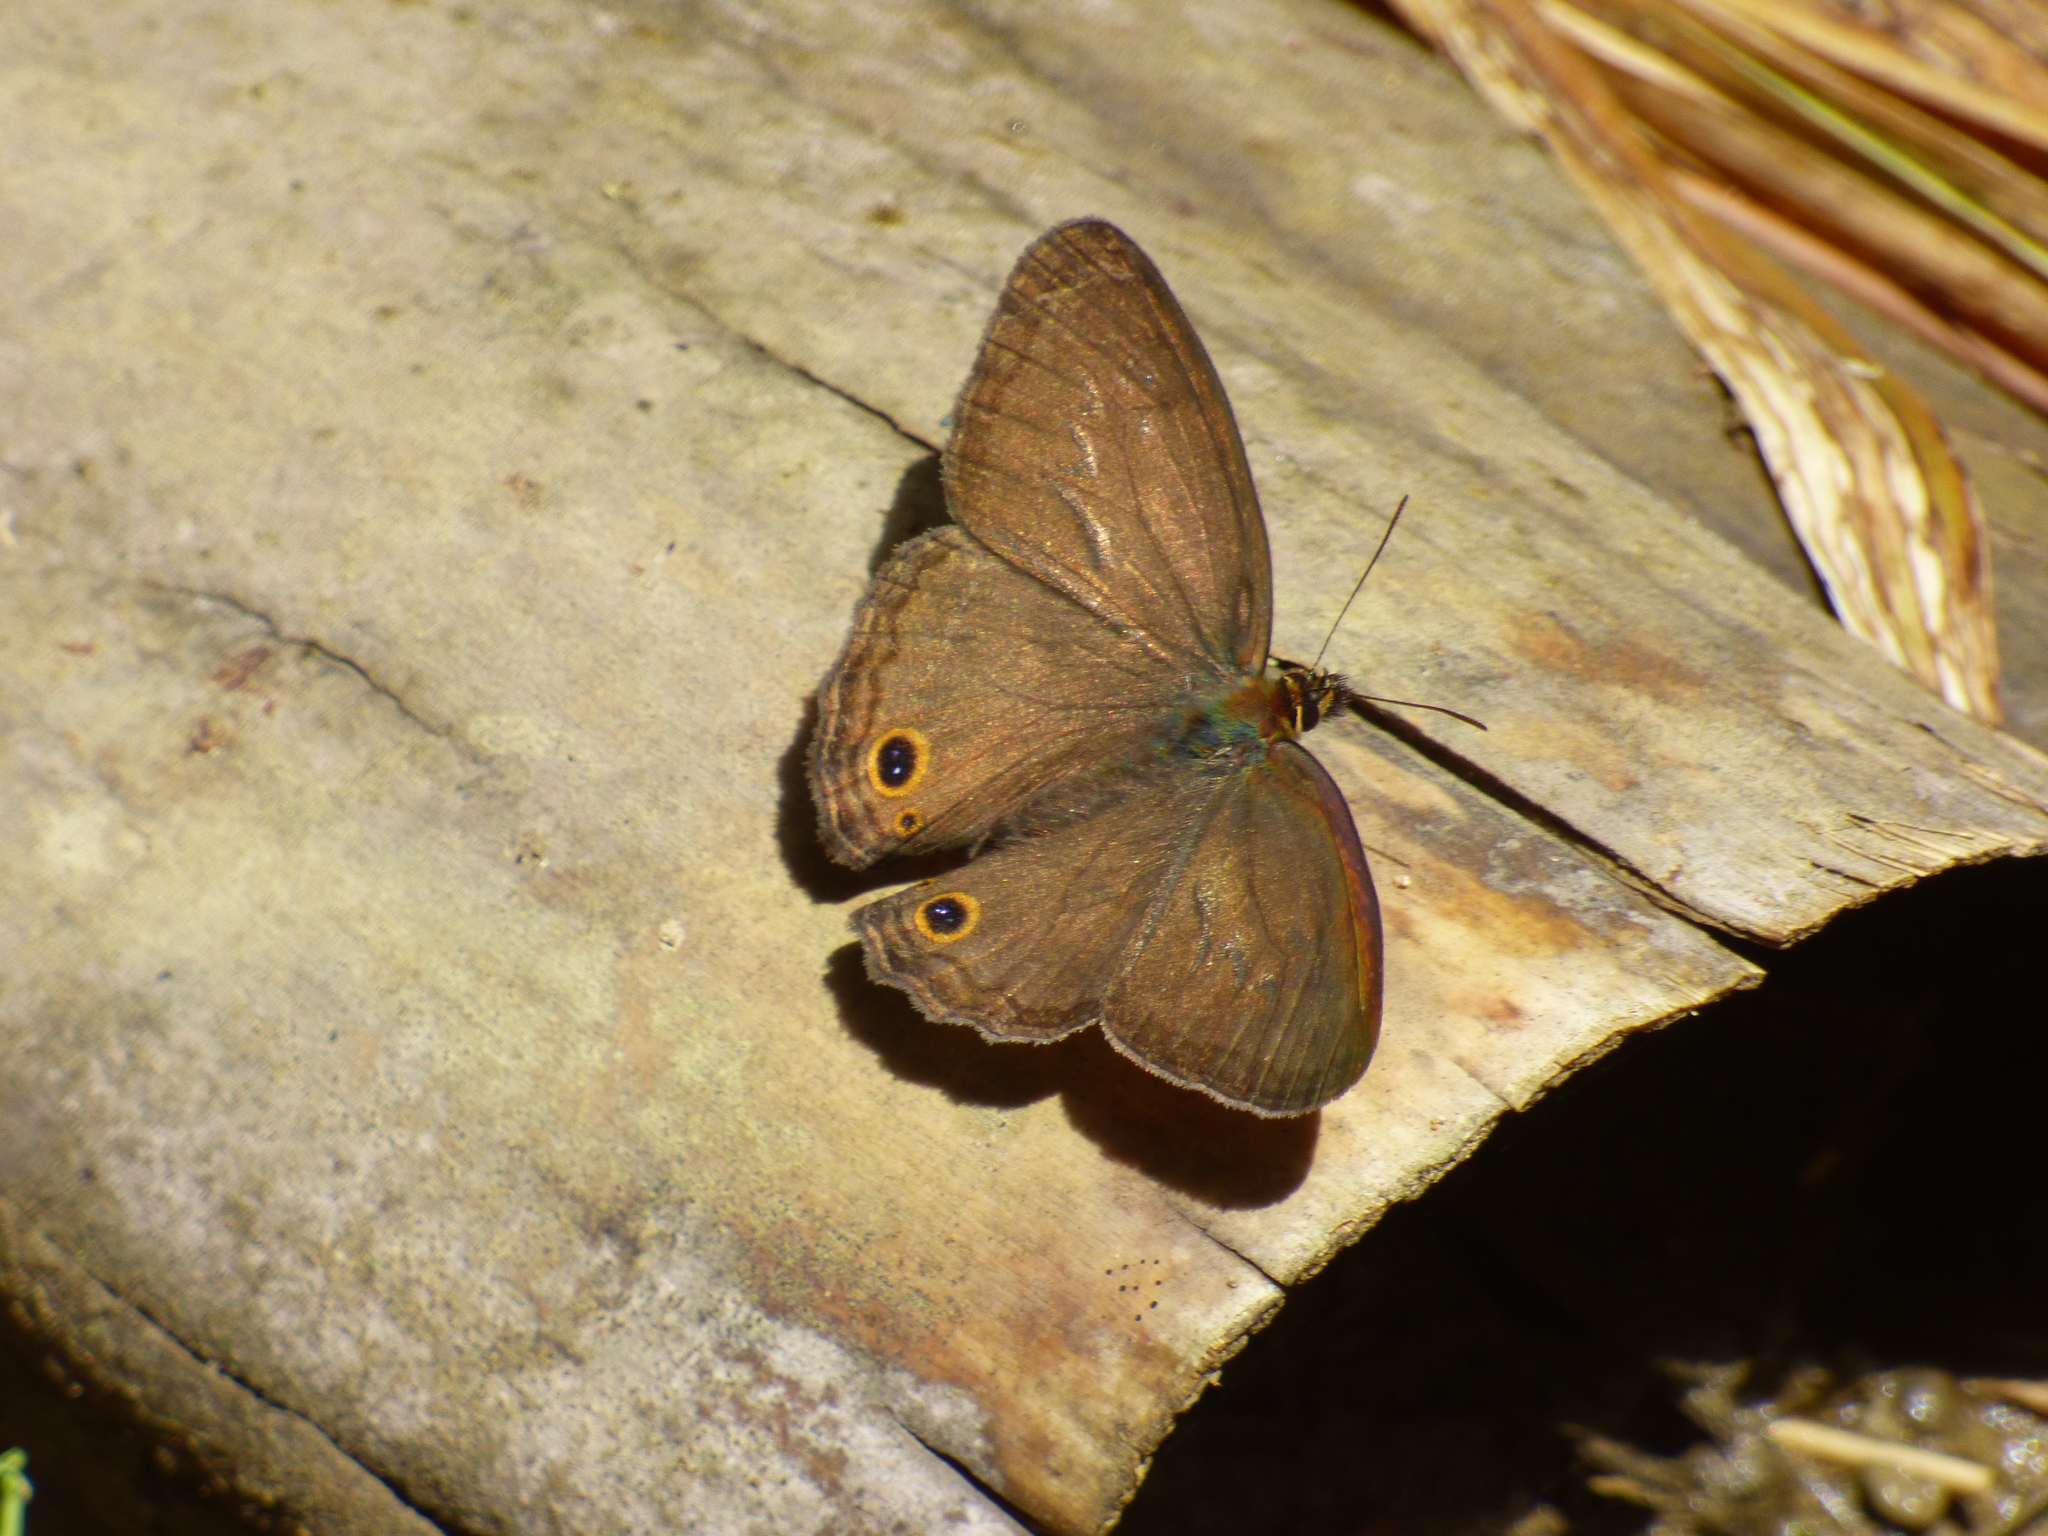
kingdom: Animalia
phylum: Arthropoda
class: Insecta
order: Lepidoptera
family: Nymphalidae
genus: Graphita
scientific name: Graphita griphe
